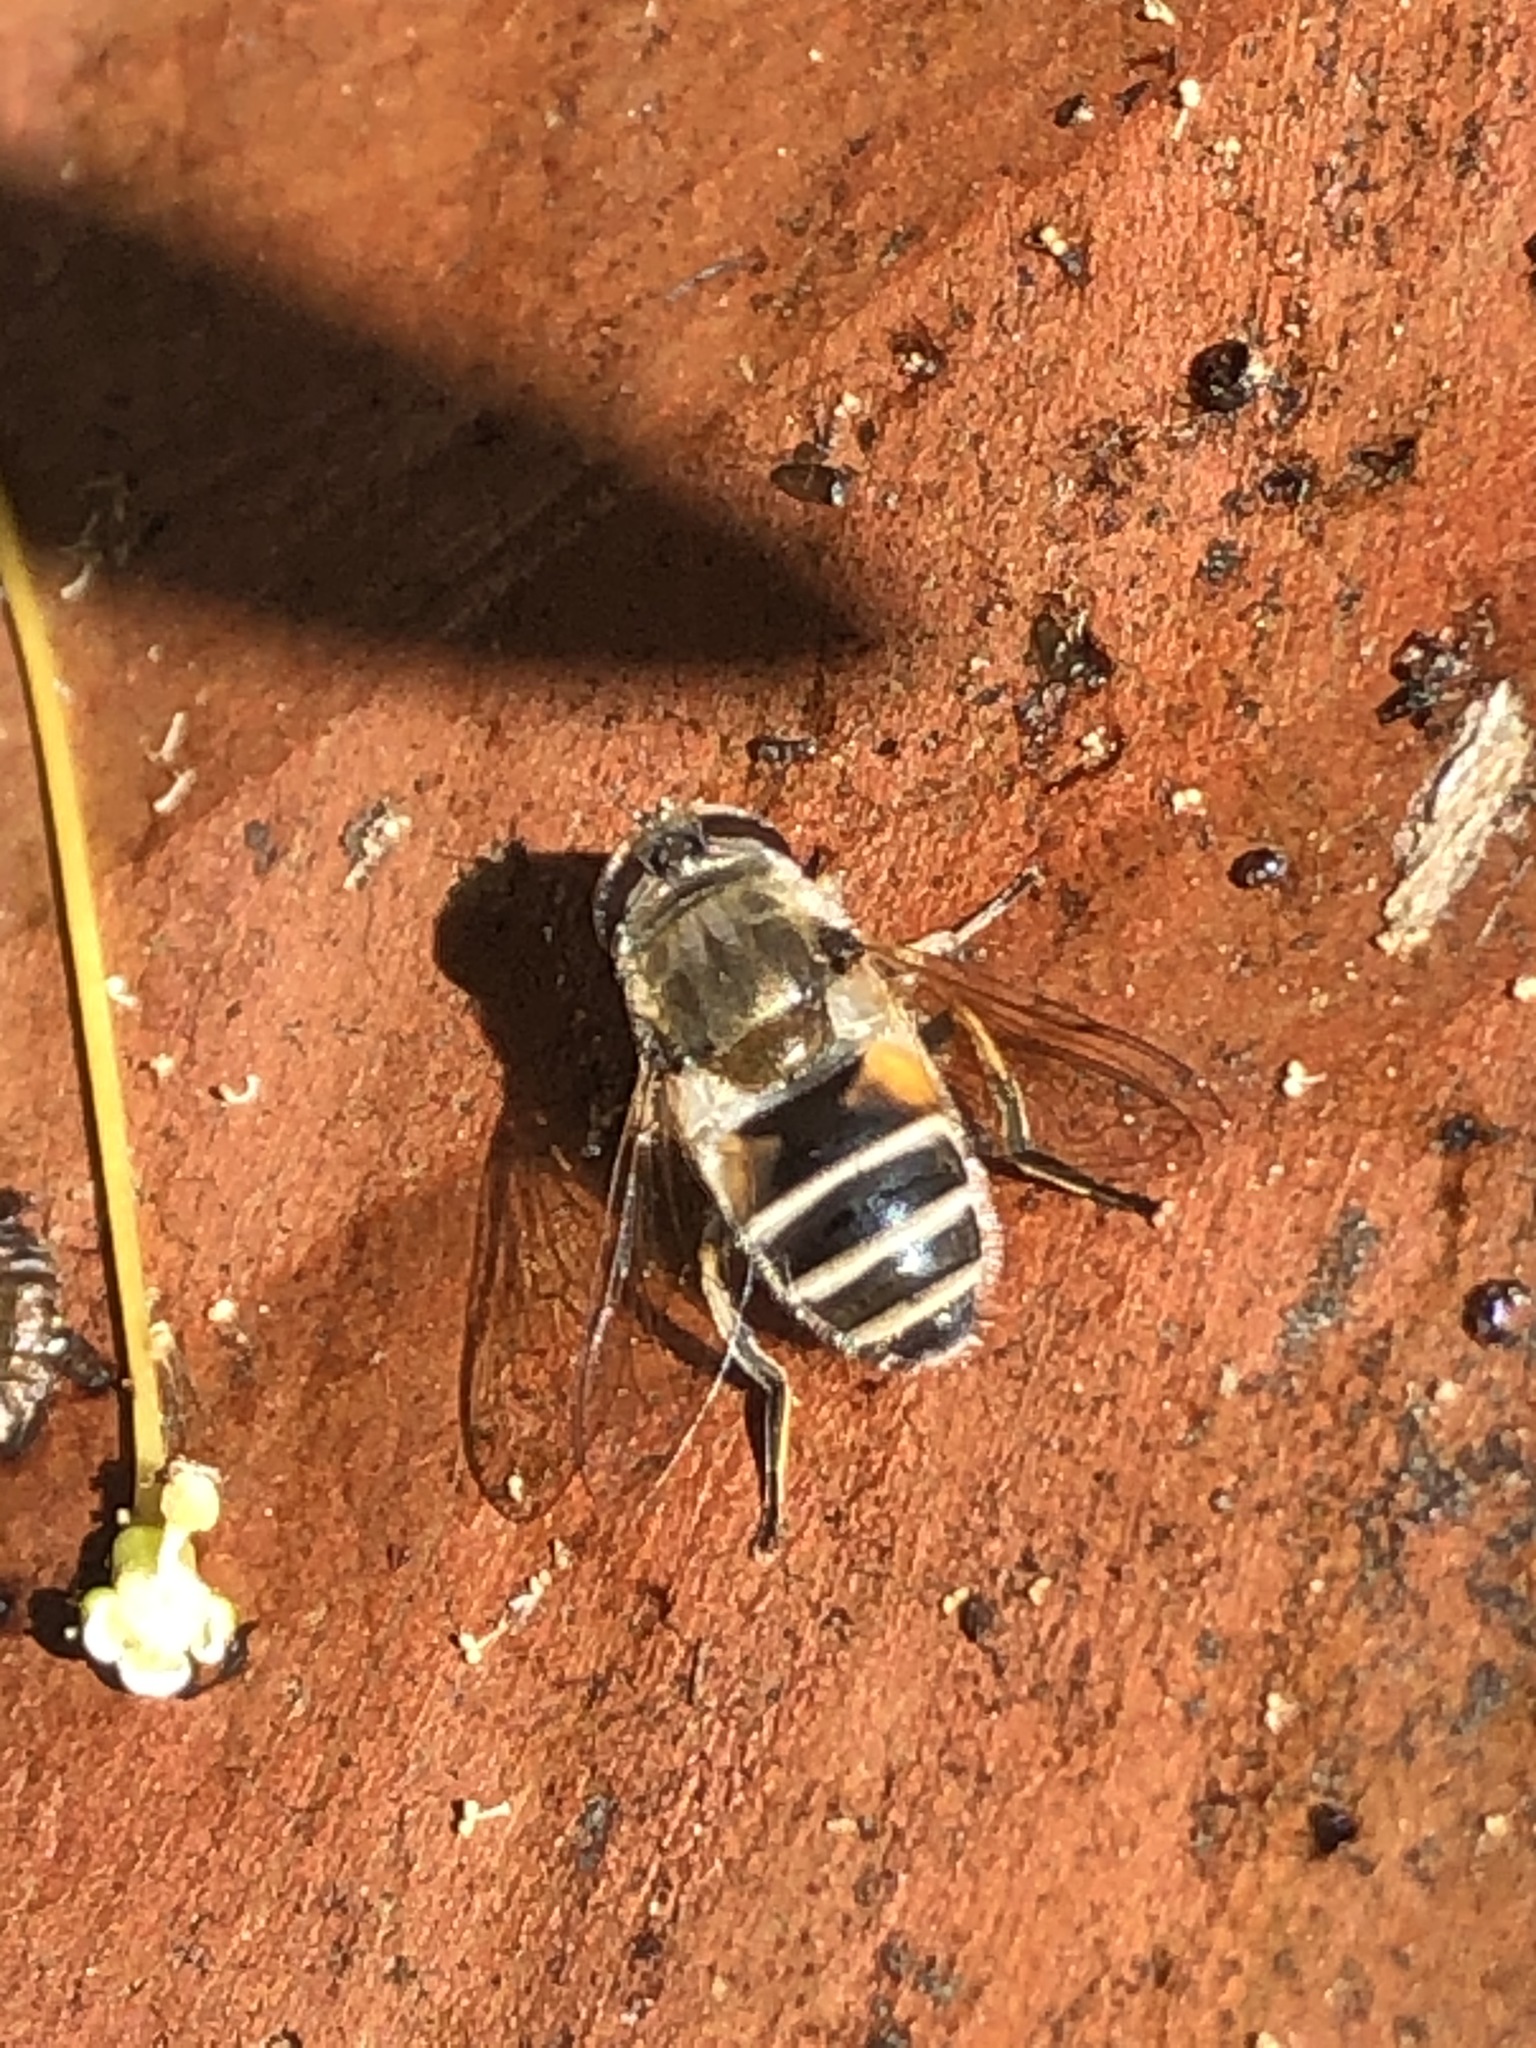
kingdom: Animalia
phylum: Arthropoda
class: Insecta
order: Diptera
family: Syrphidae
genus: Eristalis
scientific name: Eristalis arbustorum
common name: Hover fly
